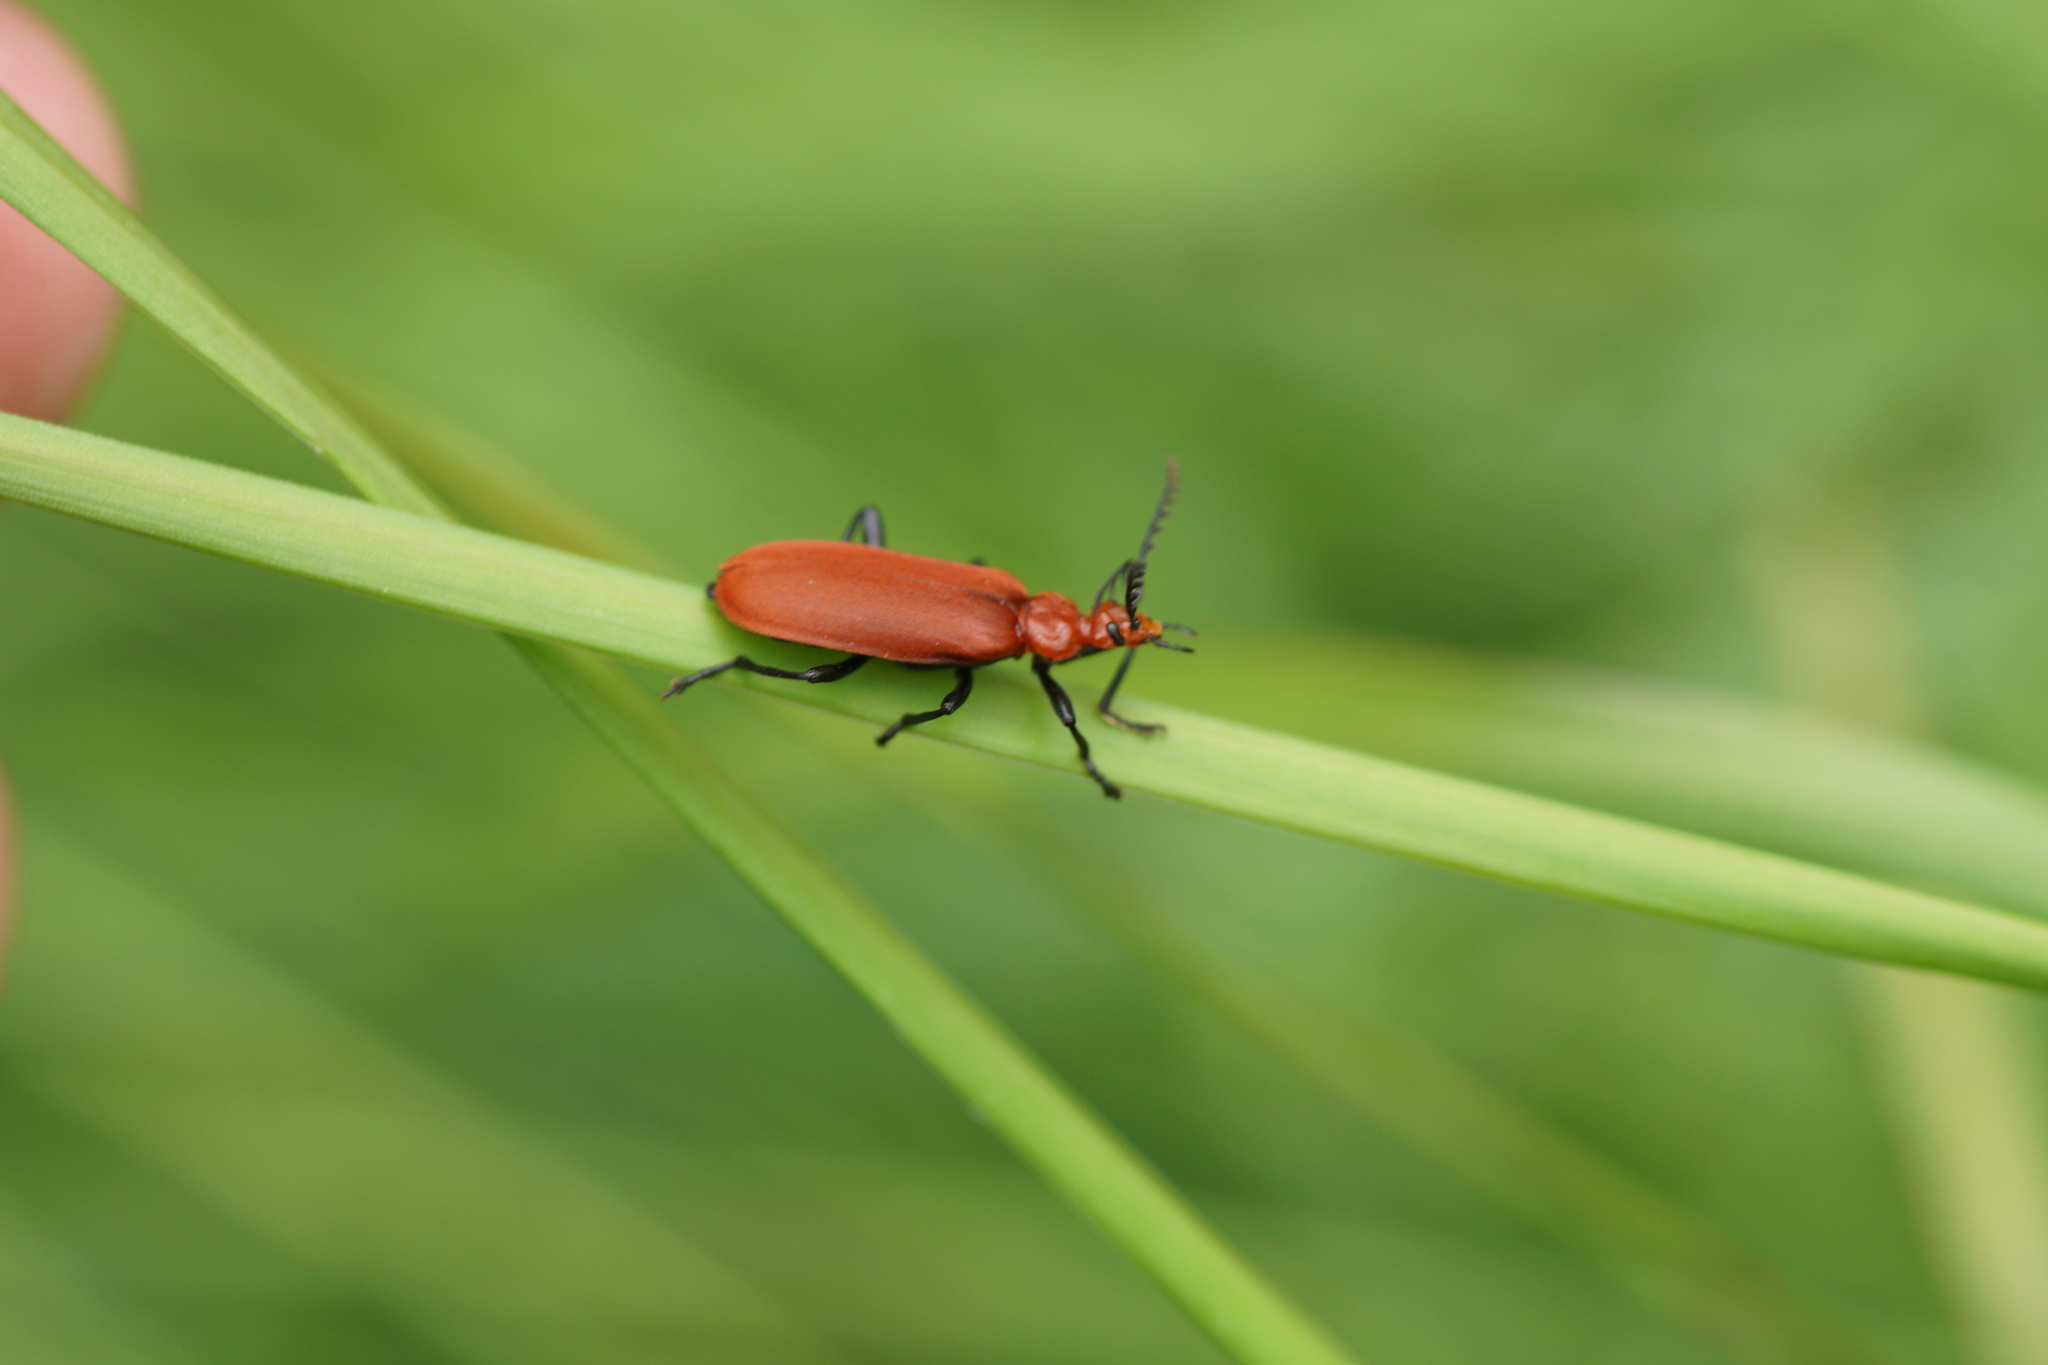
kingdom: Animalia
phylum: Arthropoda
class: Insecta
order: Coleoptera
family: Pyrochroidae
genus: Pyrochroa
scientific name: Pyrochroa serraticornis
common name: Red-headed cardinal beetle
